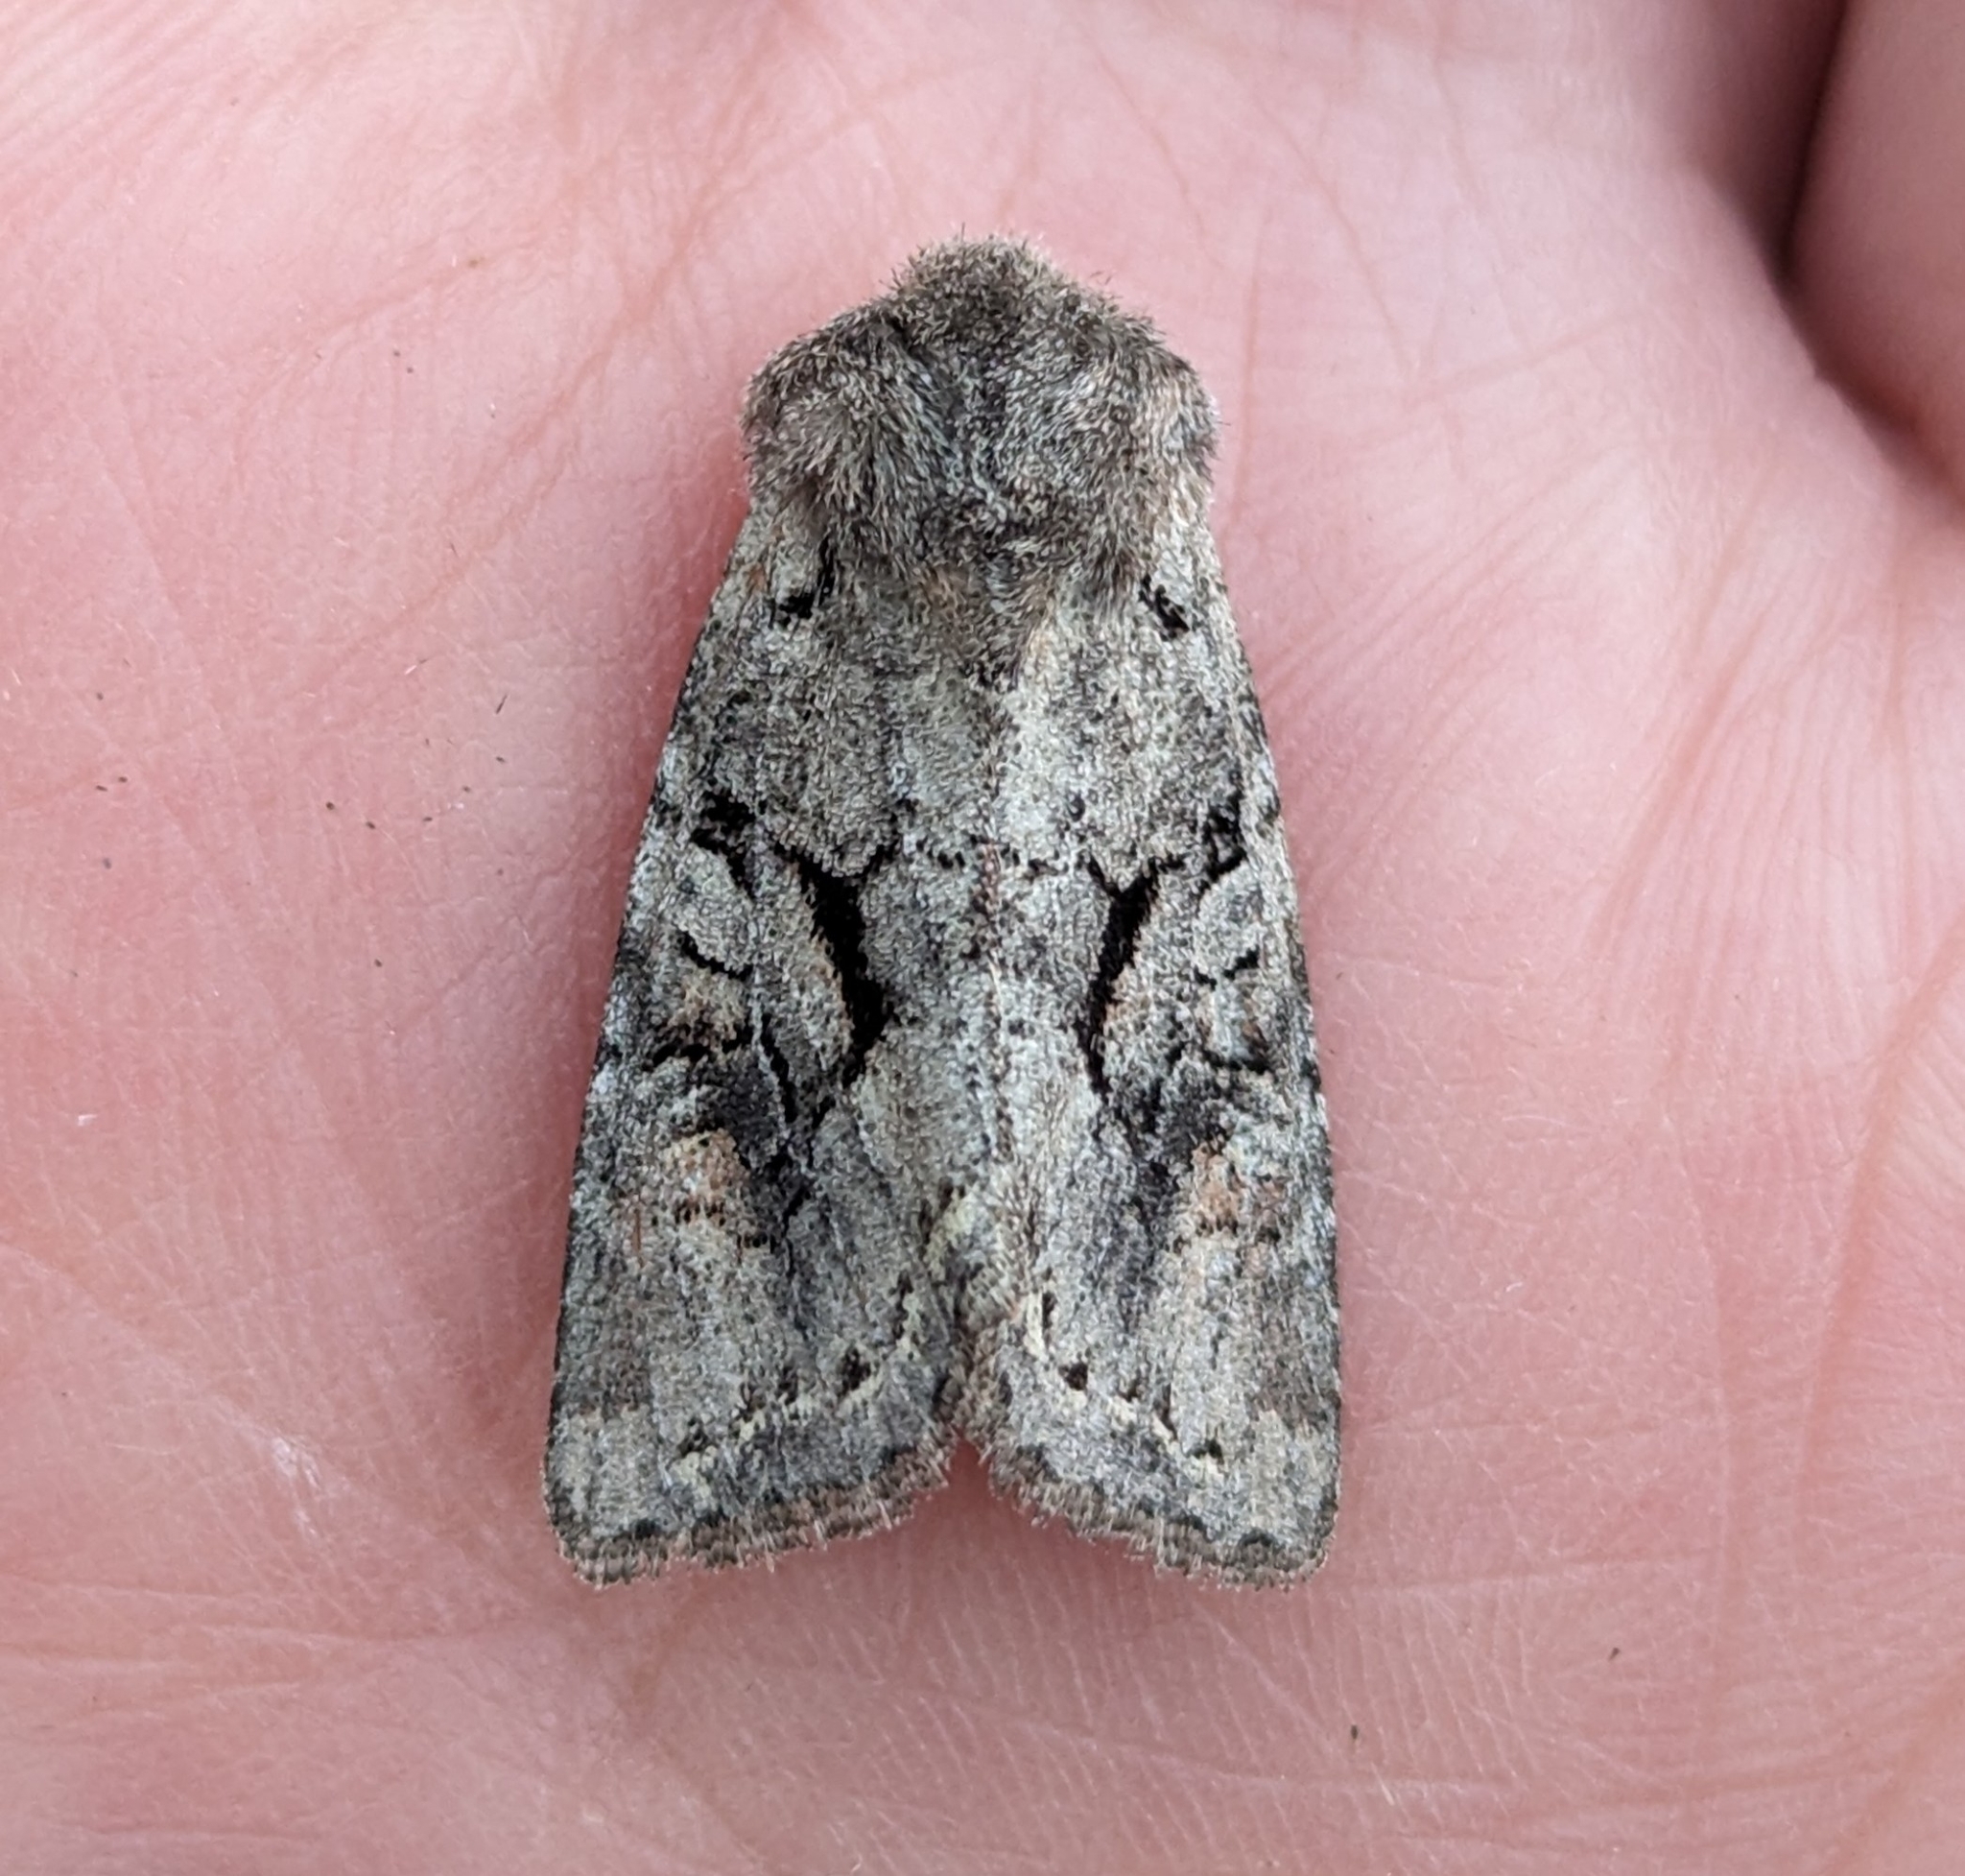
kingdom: Animalia
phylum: Arthropoda
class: Insecta
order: Lepidoptera
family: Noctuidae
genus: Orthosia
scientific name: Orthosia segregata
